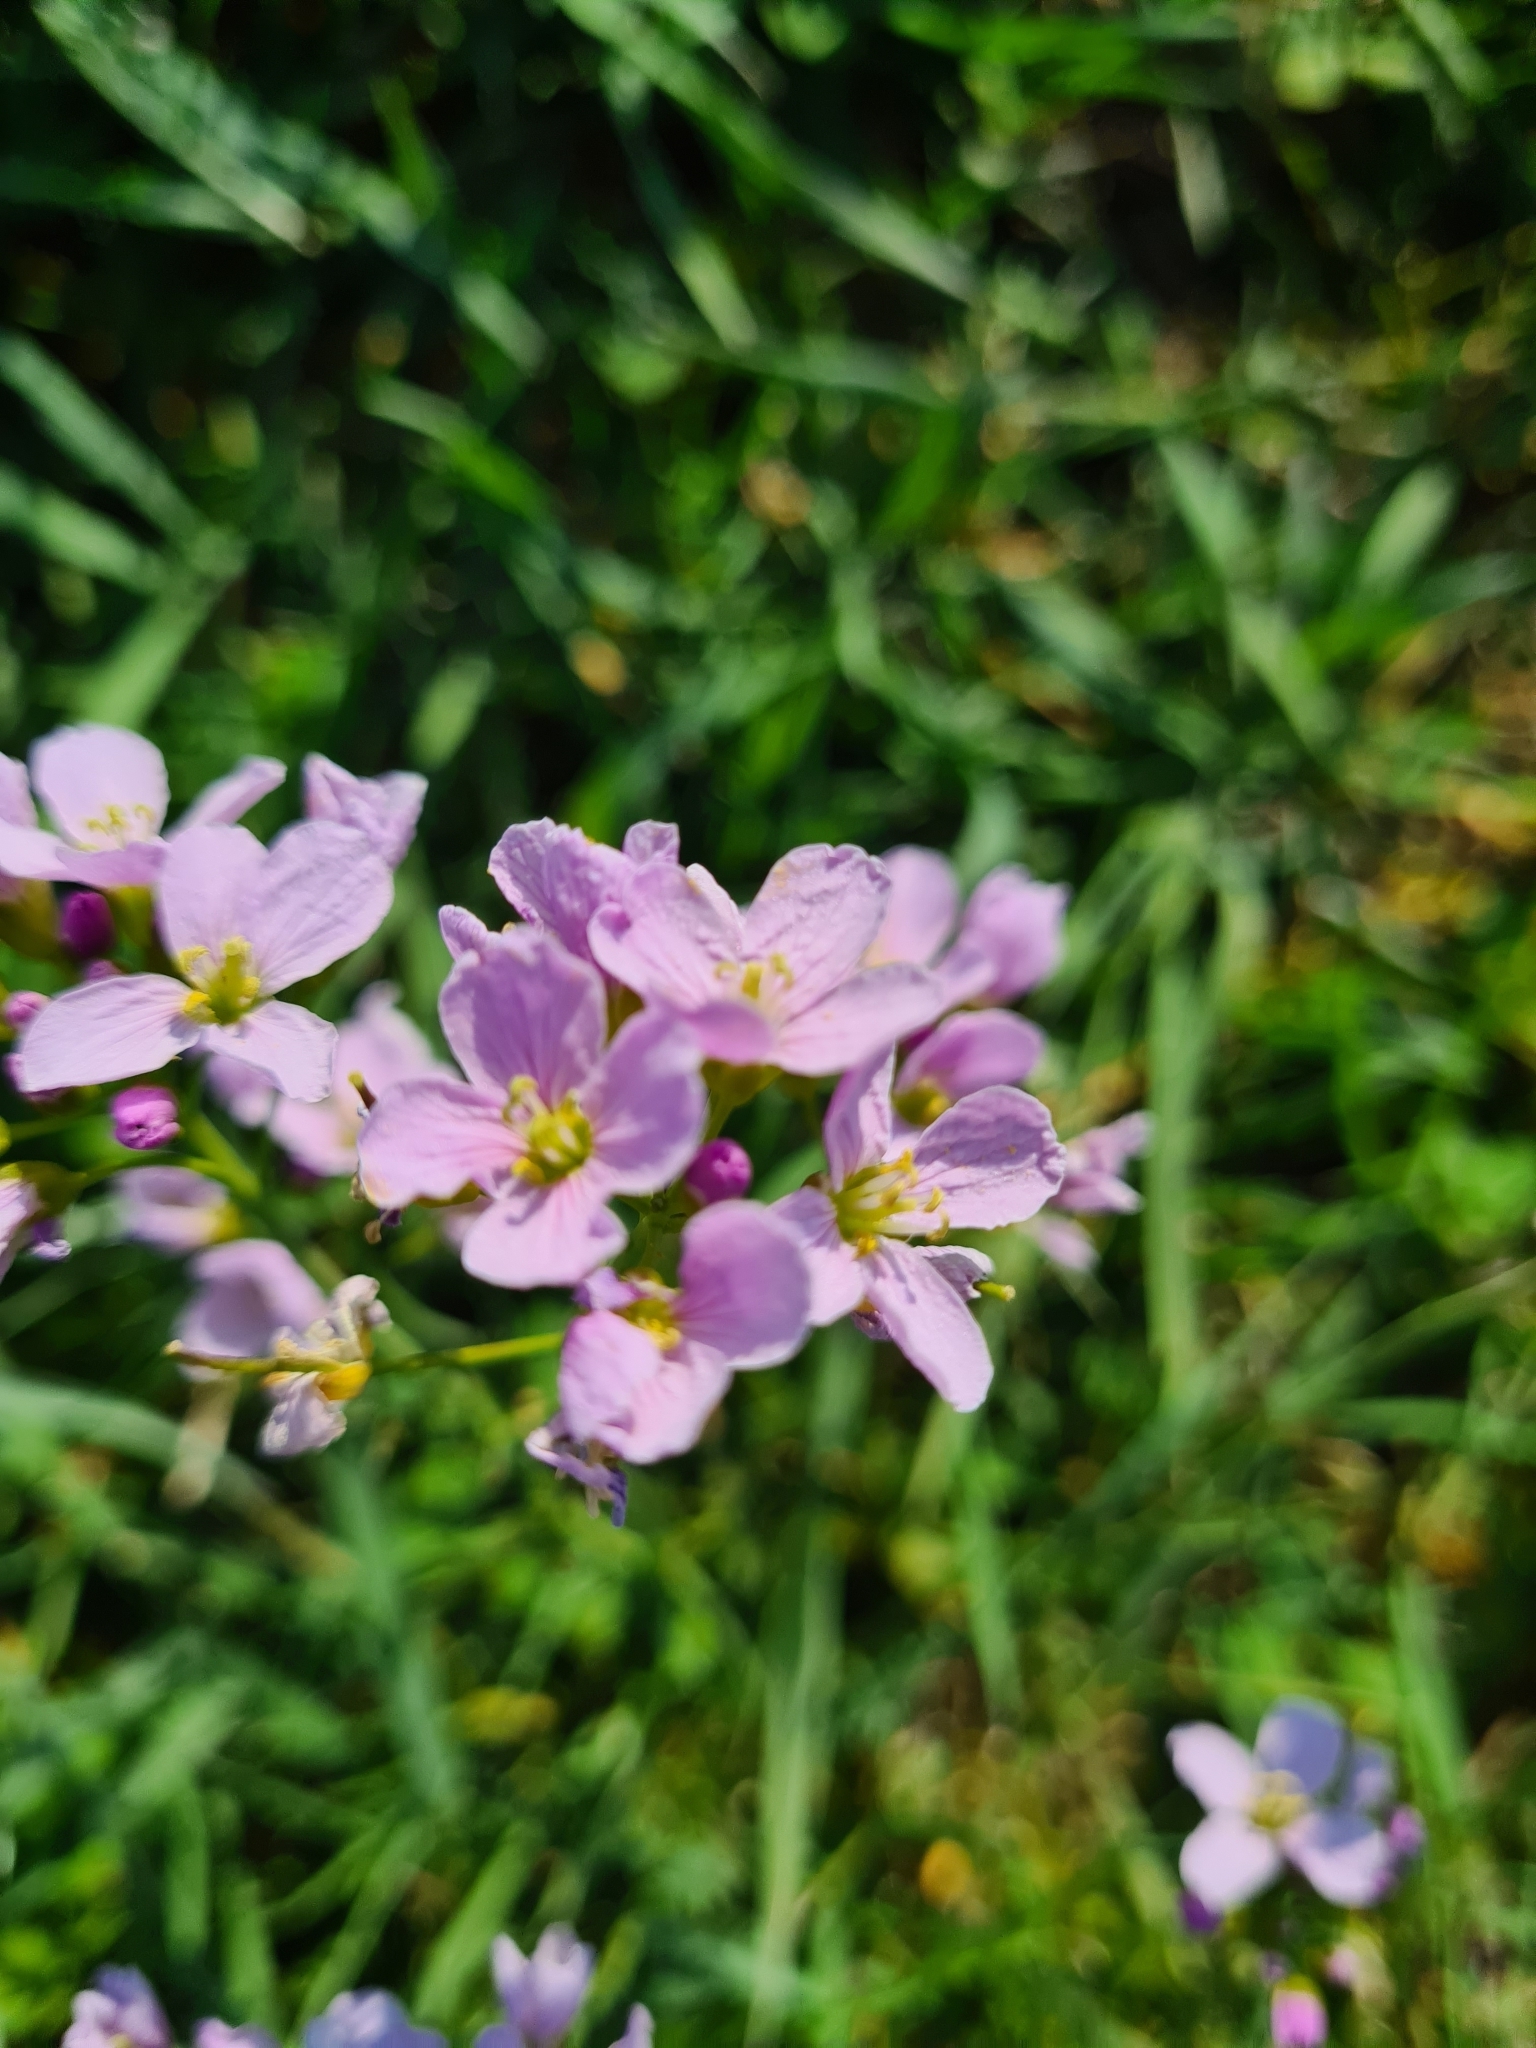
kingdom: Plantae
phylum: Tracheophyta
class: Magnoliopsida
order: Brassicales
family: Brassicaceae
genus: Cardamine
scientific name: Cardamine pratensis
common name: Cuckoo flower
